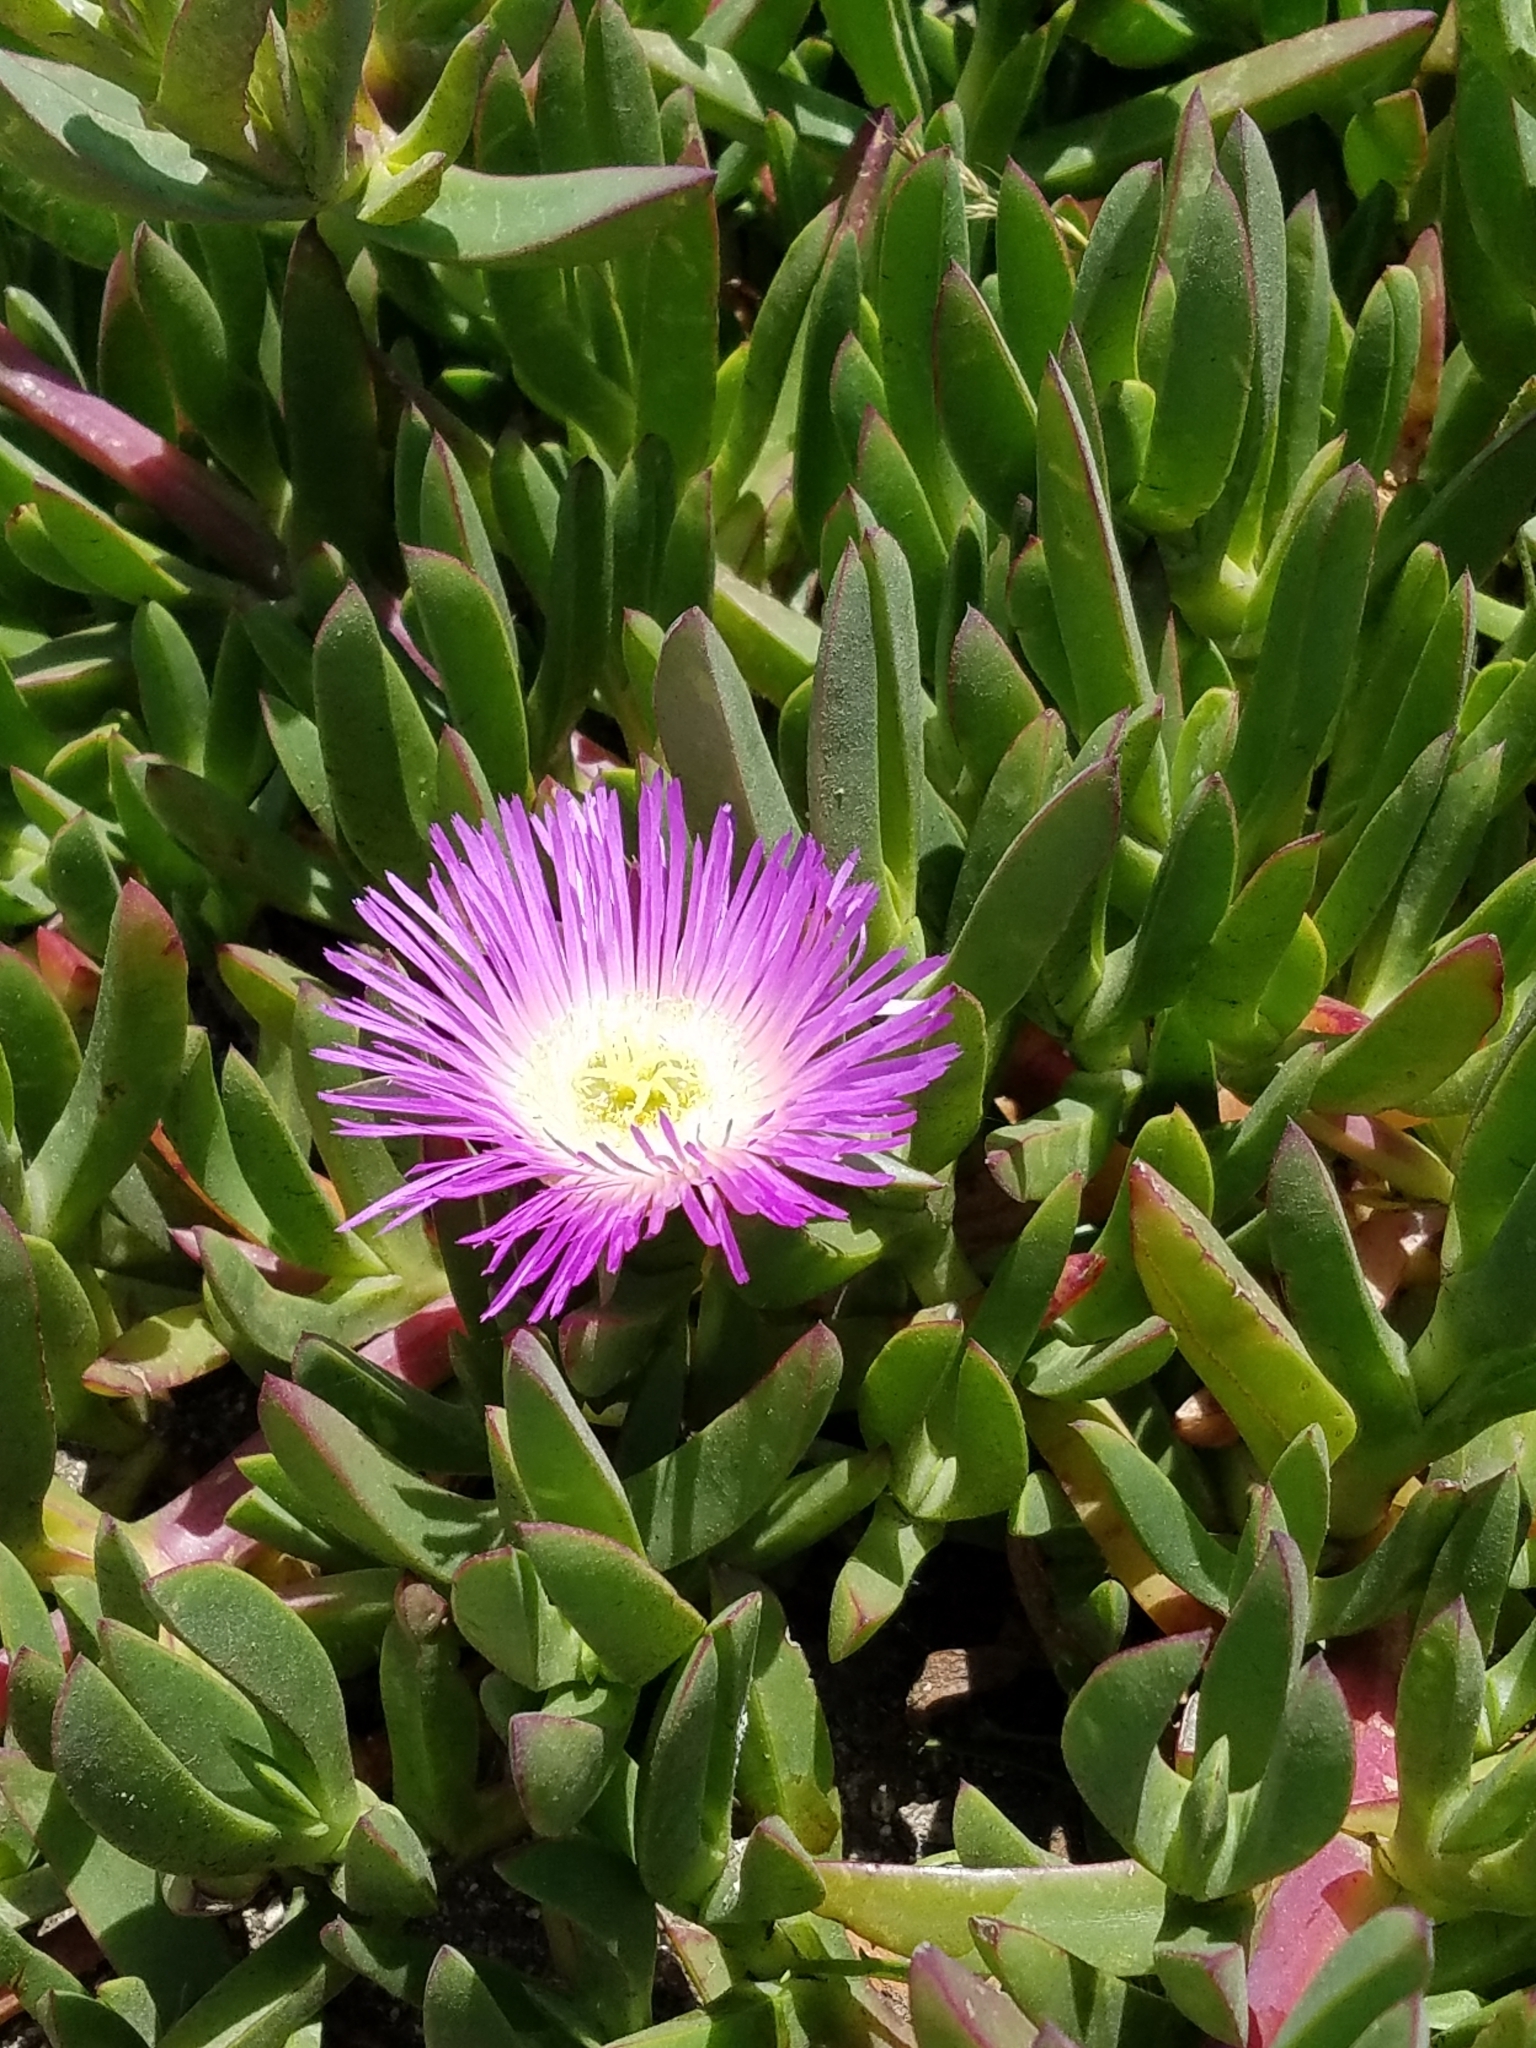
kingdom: Plantae
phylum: Tracheophyta
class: Magnoliopsida
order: Caryophyllales
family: Aizoaceae
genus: Carpobrotus
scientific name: Carpobrotus chilensis
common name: Sea fig
